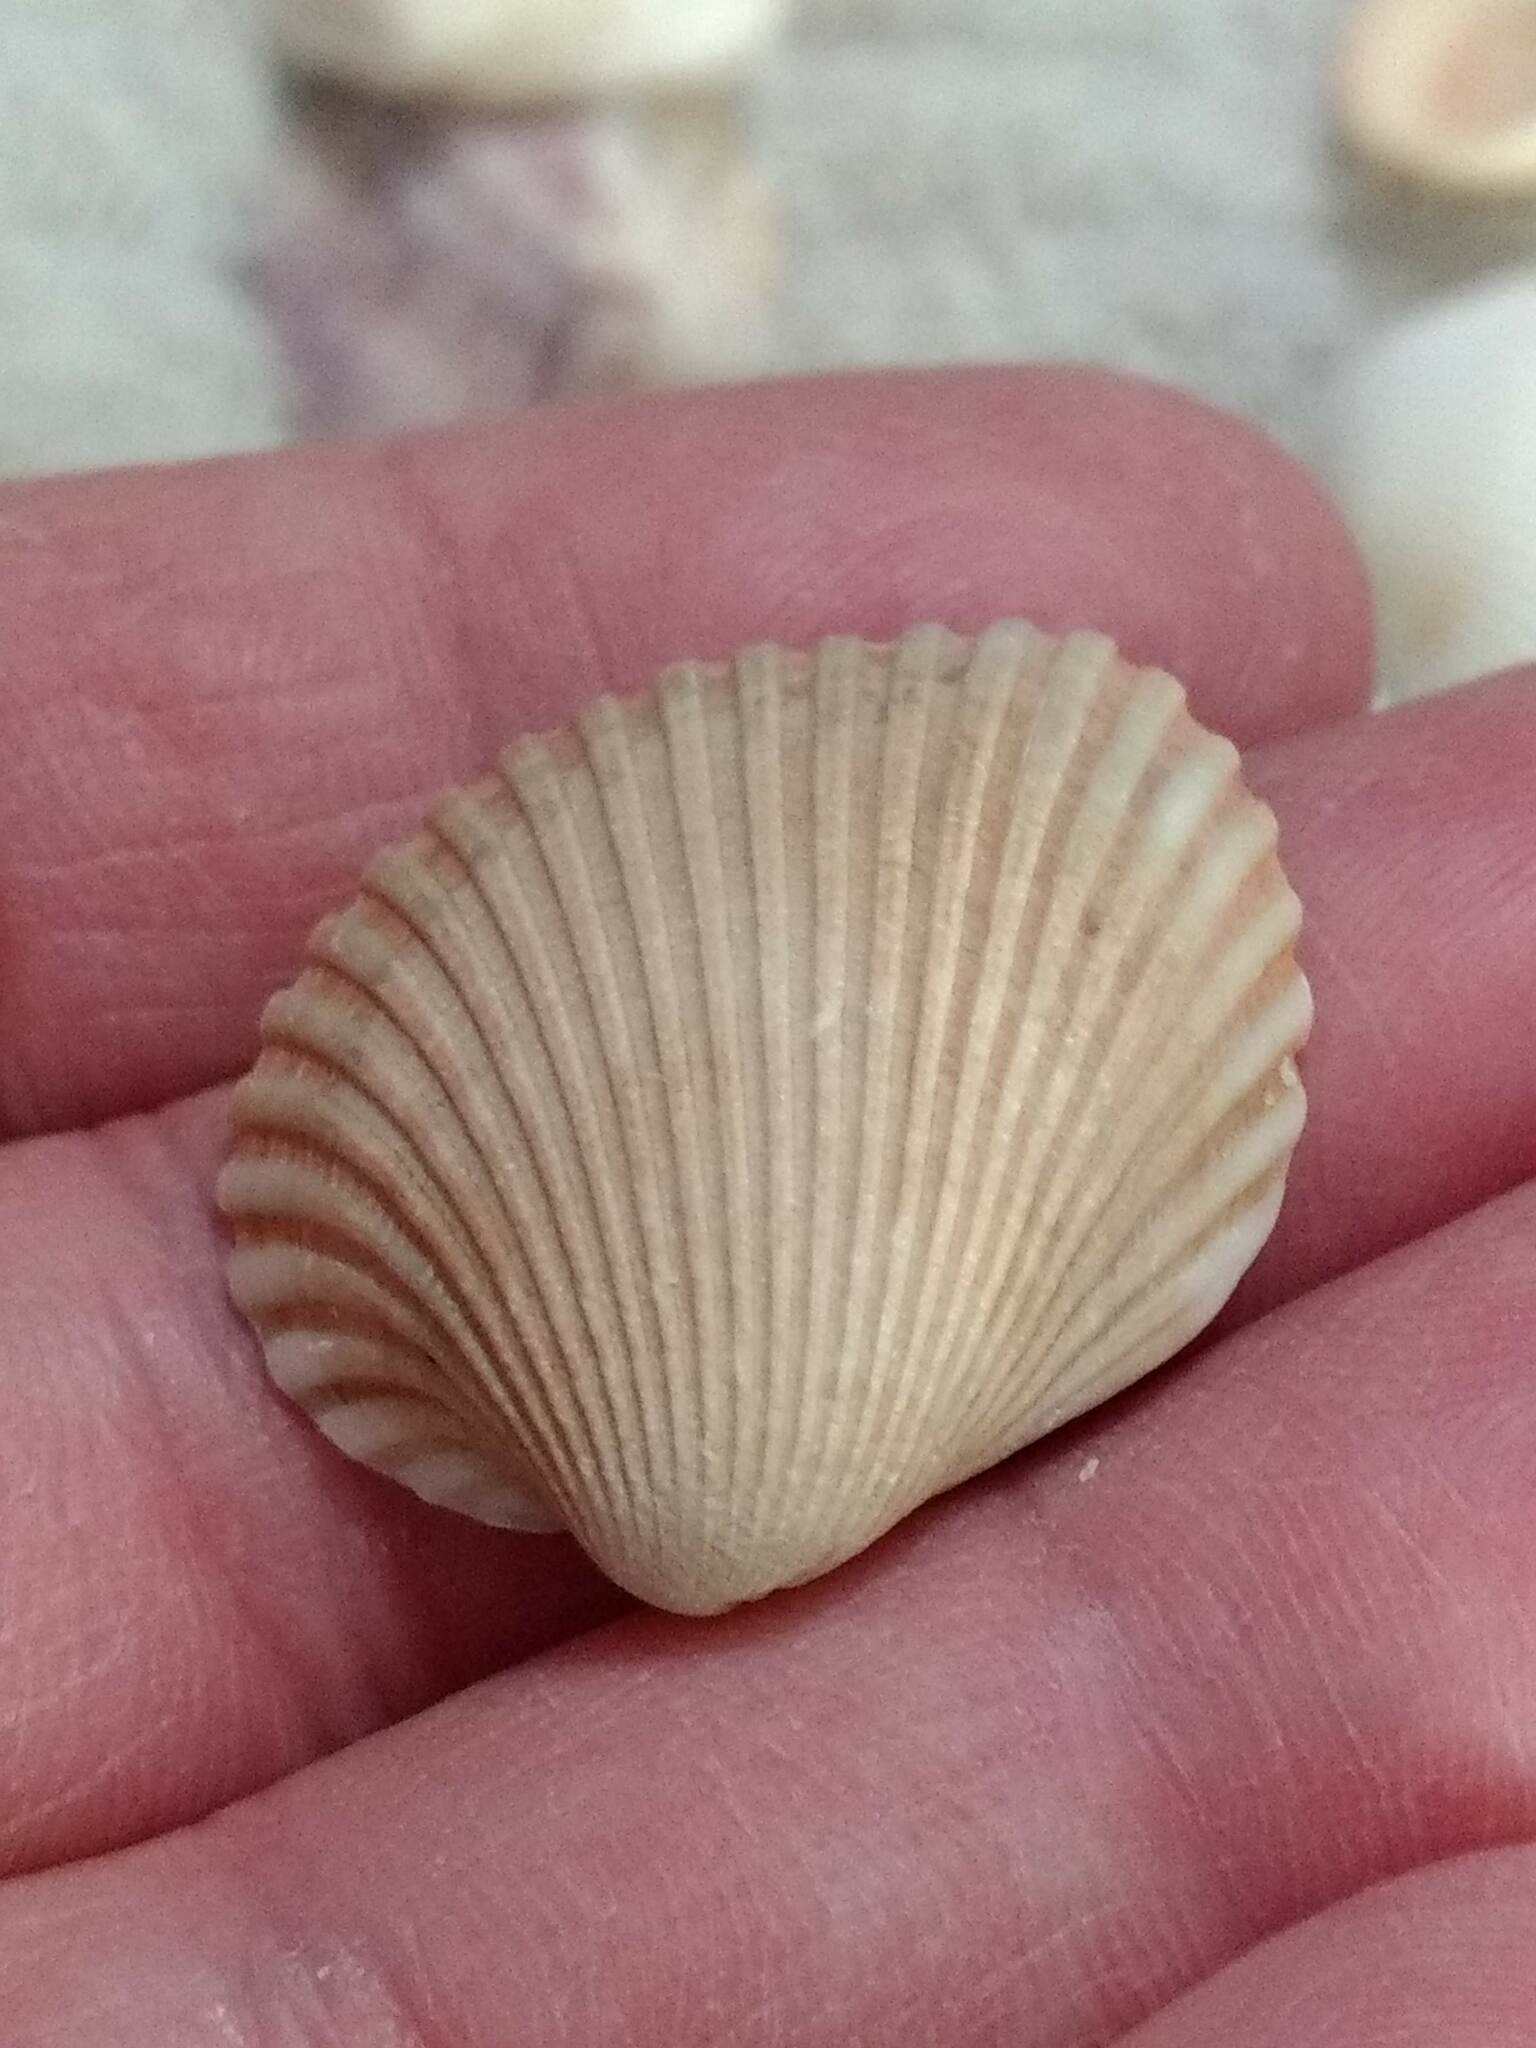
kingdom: Animalia
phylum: Mollusca
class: Bivalvia
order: Arcida
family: Arcidae
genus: Lunarca
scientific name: Lunarca ovalis
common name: Blood ark
